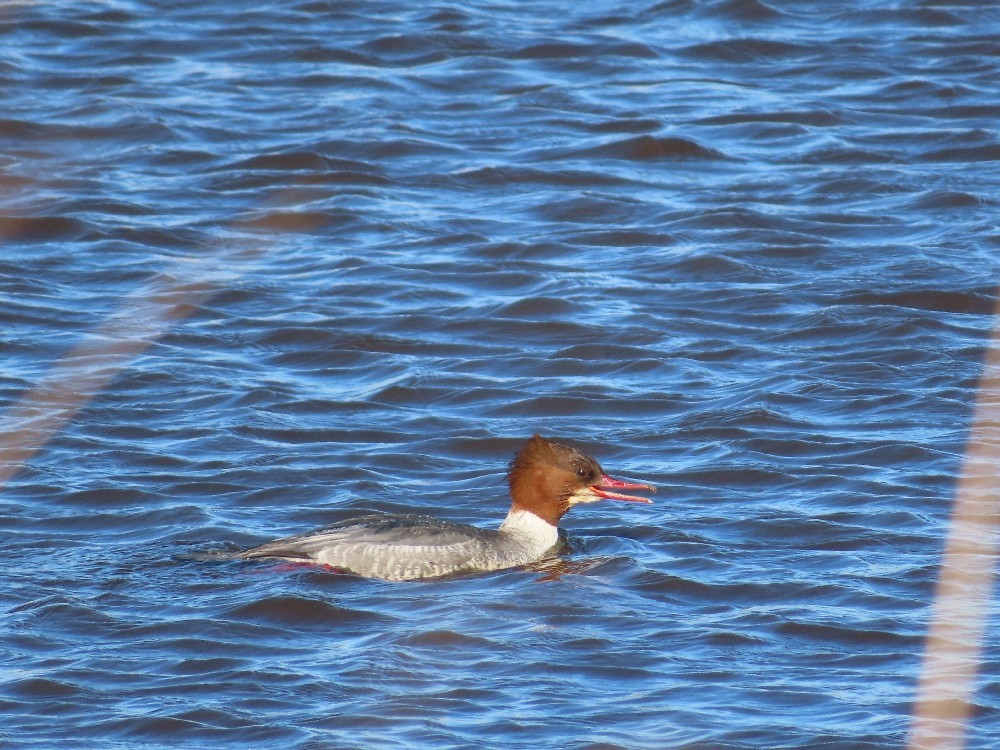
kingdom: Animalia
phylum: Chordata
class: Aves
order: Anseriformes
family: Anatidae
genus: Mergus
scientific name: Mergus merganser
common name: Common merganser
